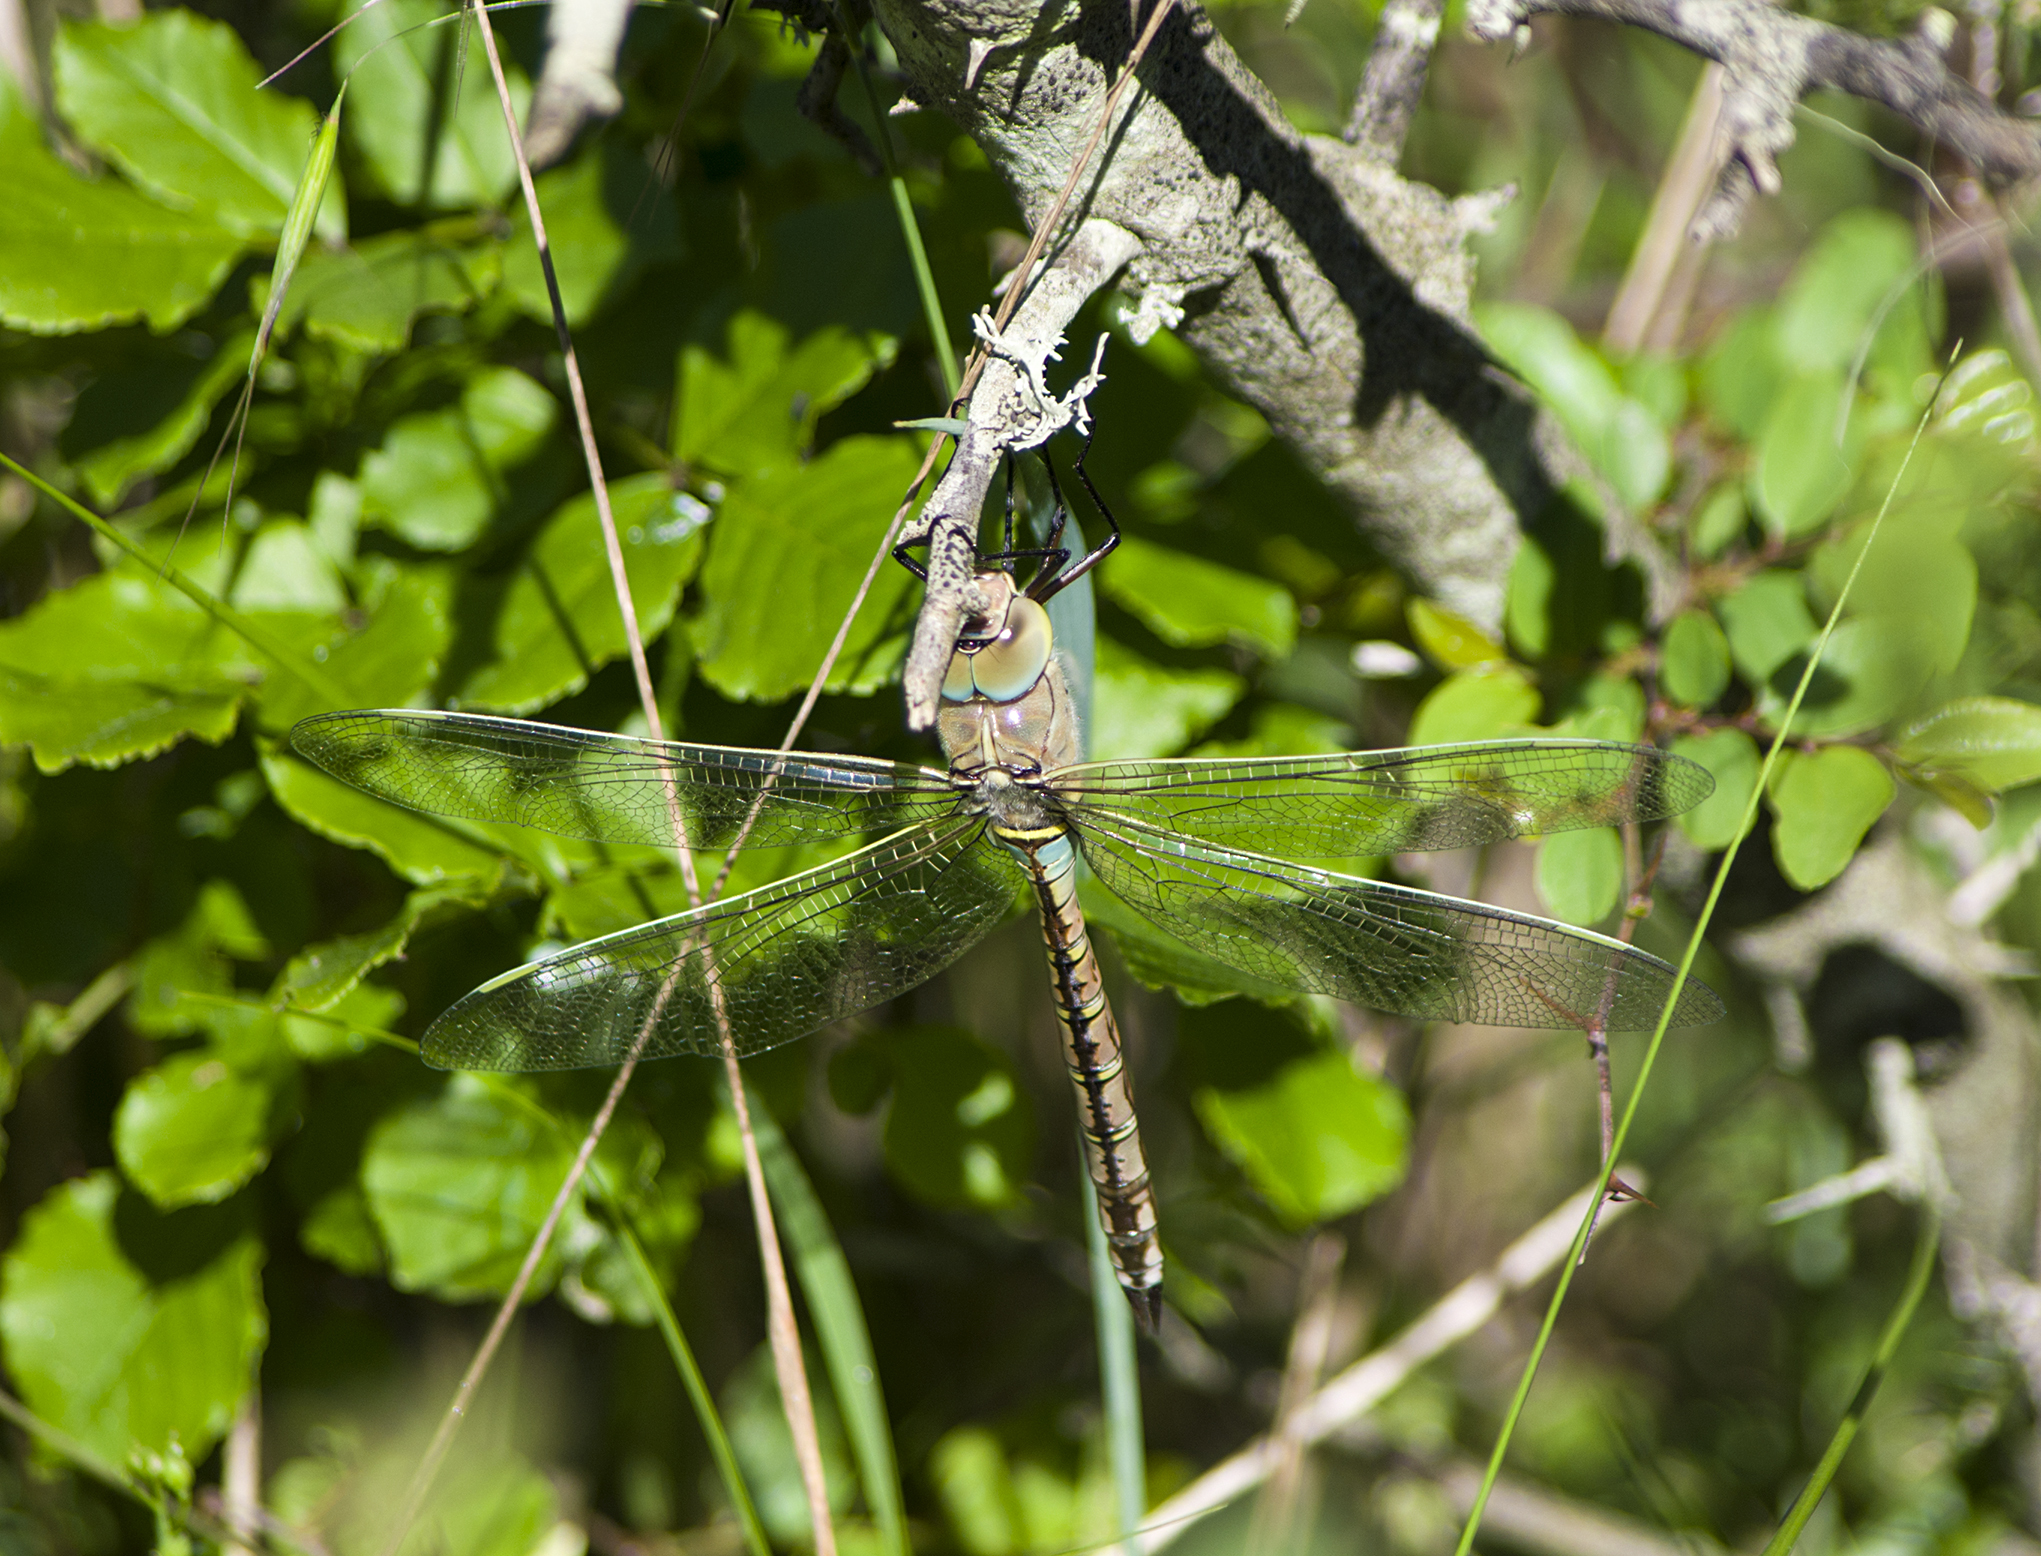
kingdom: Animalia
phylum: Arthropoda
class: Insecta
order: Odonata
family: Aeshnidae
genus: Anax
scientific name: Anax parthenope
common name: Lesser emperor
